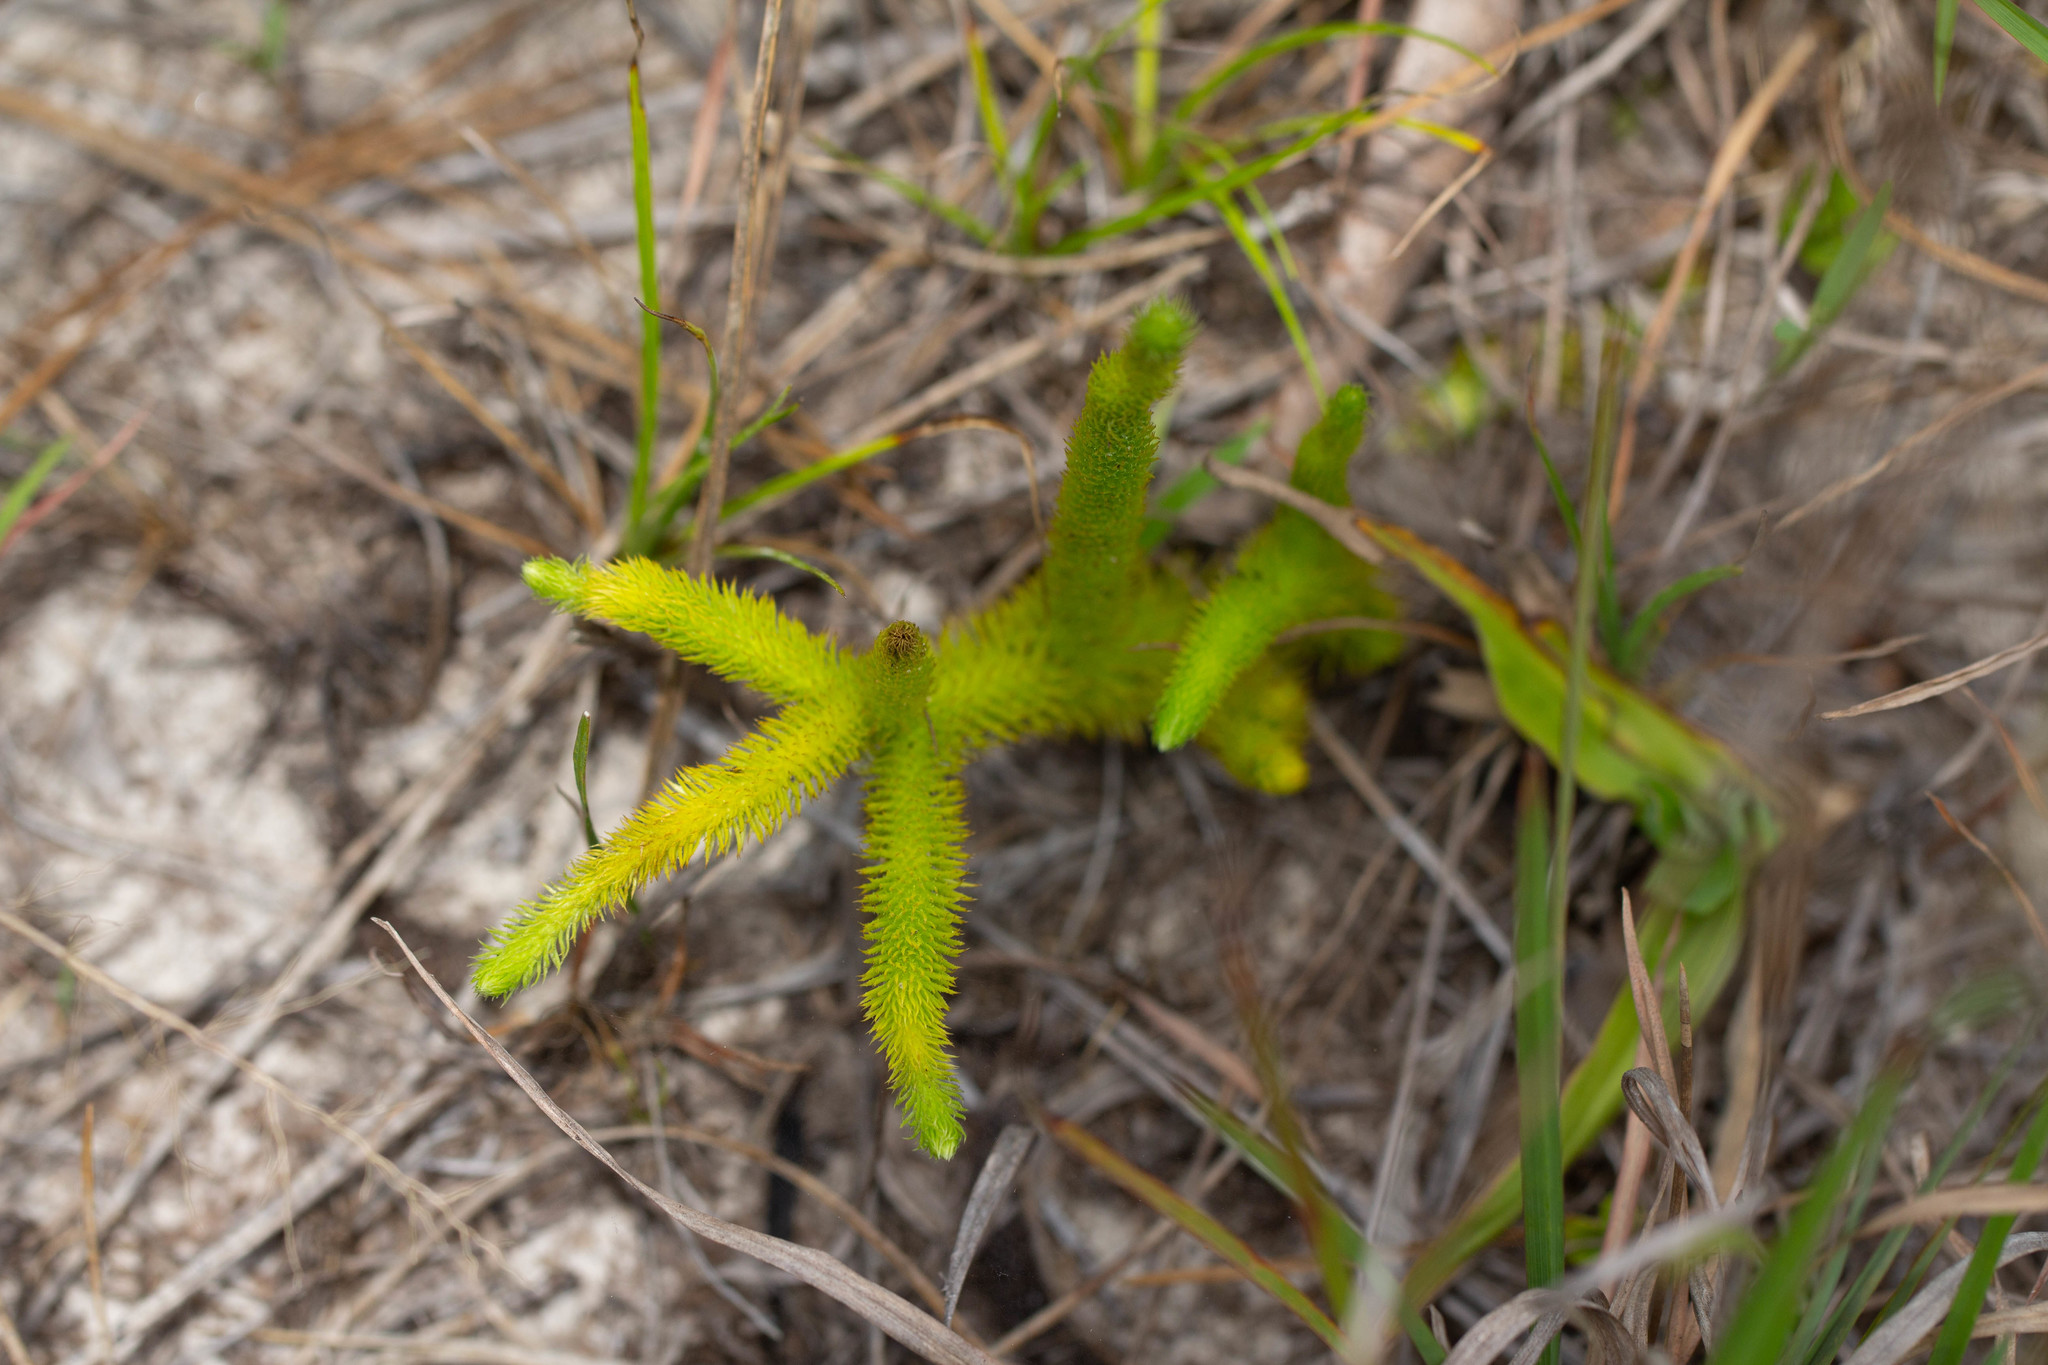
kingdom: Plantae
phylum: Tracheophyta
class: Lycopodiopsida
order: Lycopodiales
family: Lycopodiaceae
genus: Lycopodiella
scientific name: Lycopodiella alopecuroides
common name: Foxtail clubmoss
